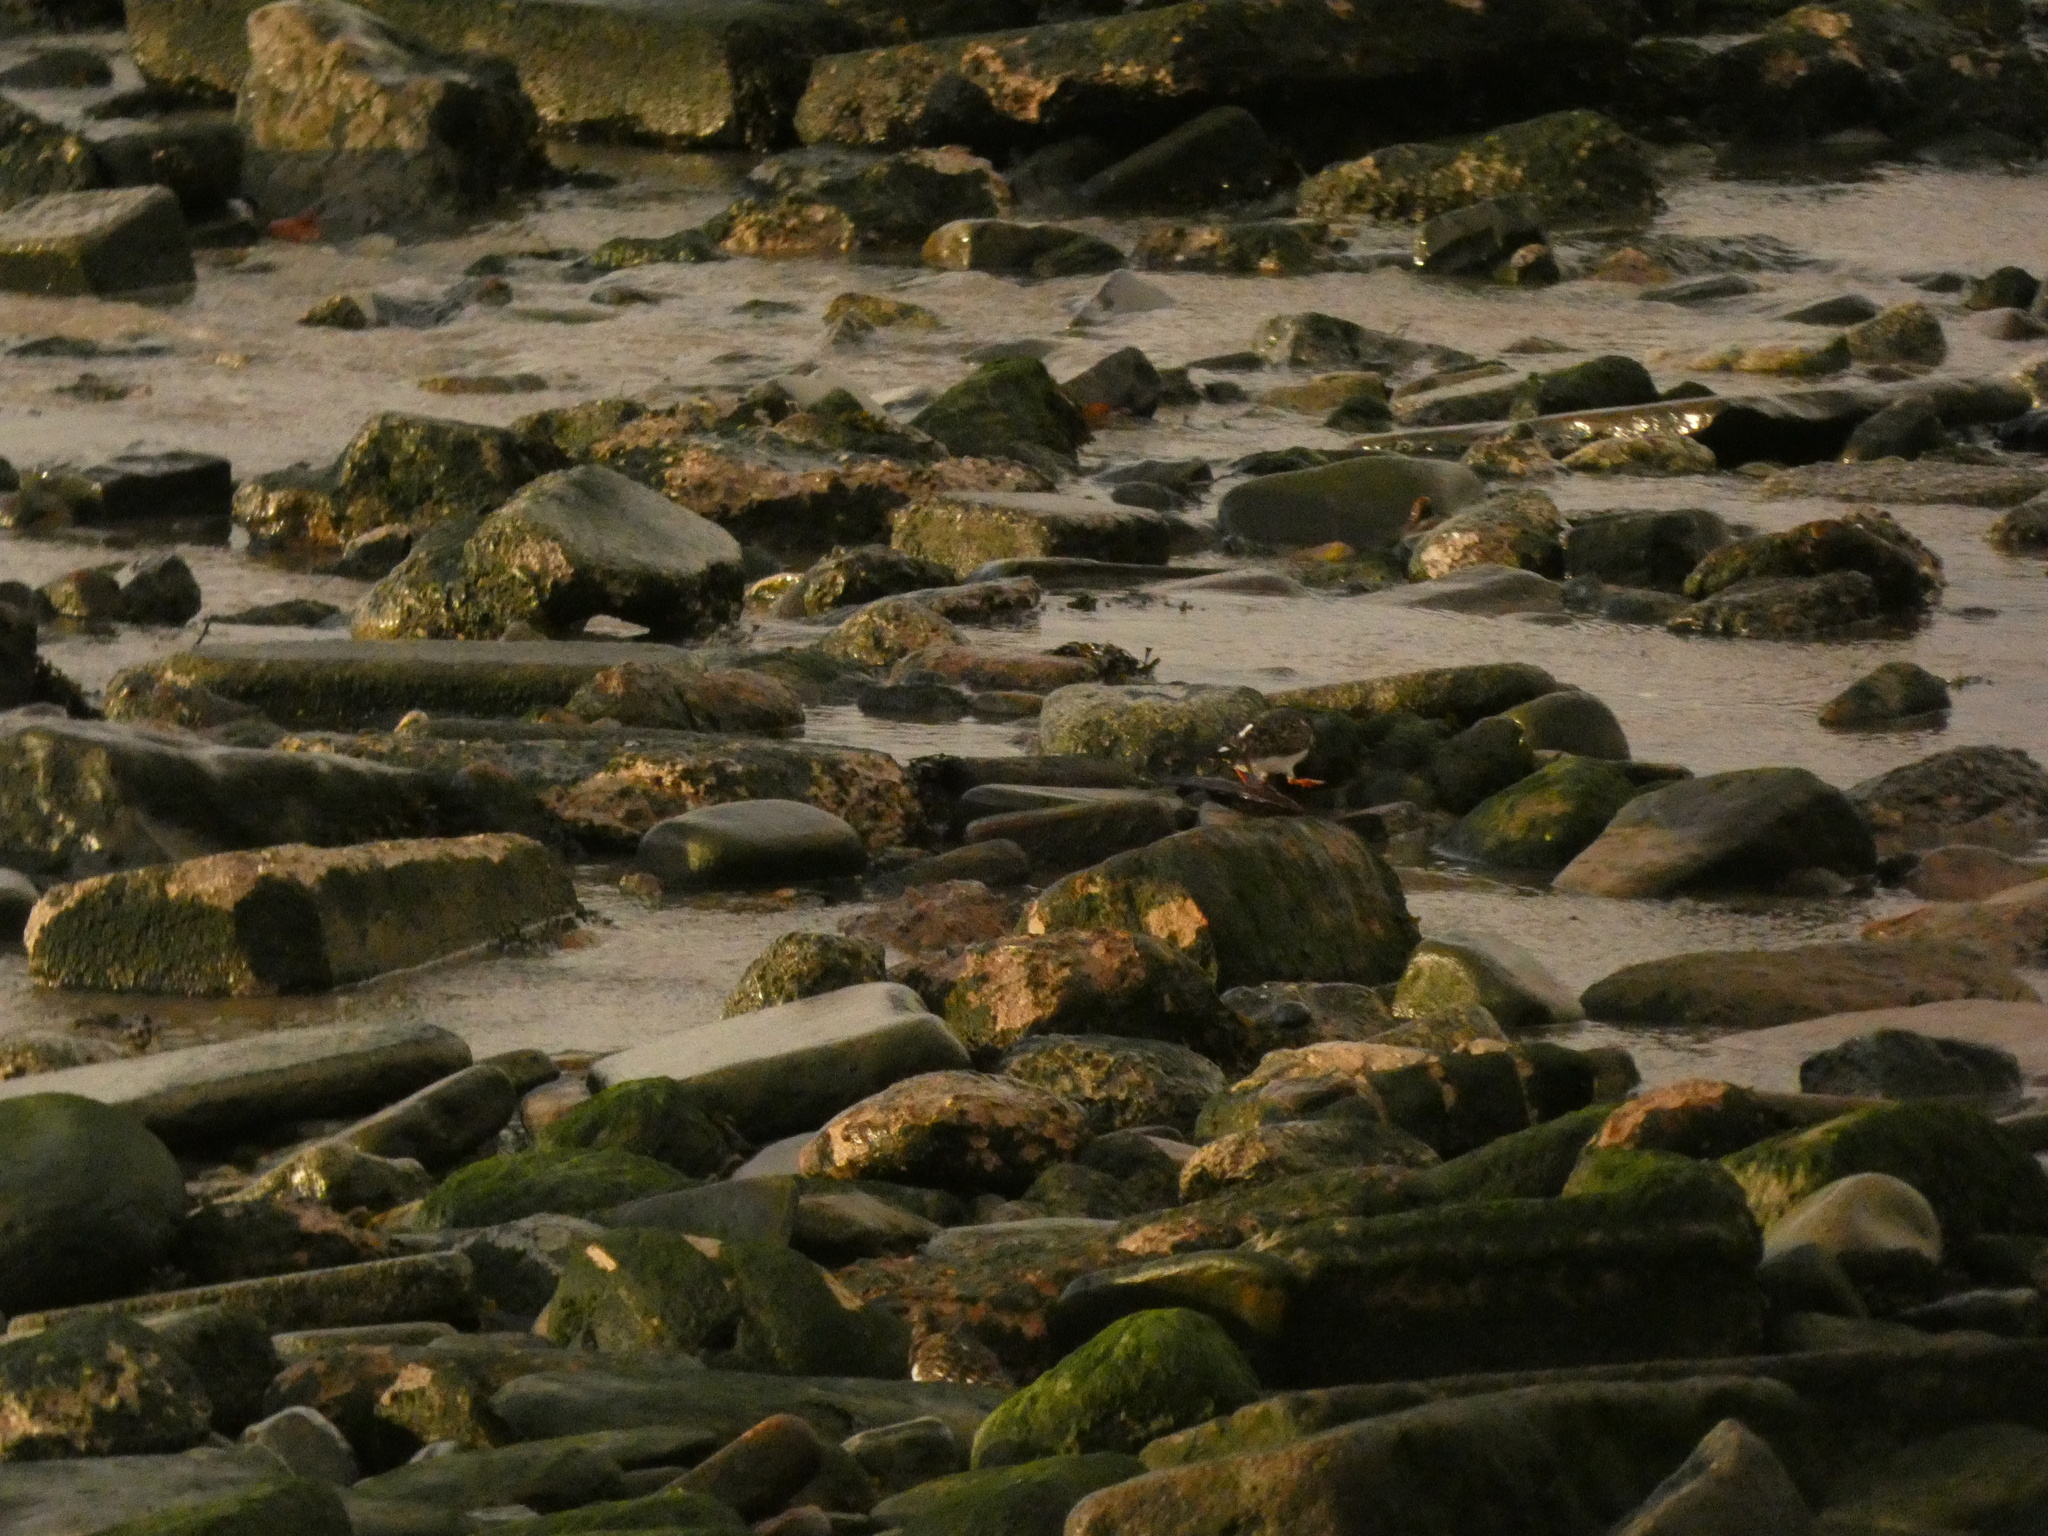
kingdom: Animalia
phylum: Chordata
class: Aves
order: Charadriiformes
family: Scolopacidae
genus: Arenaria
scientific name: Arenaria interpres
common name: Ruddy turnstone
